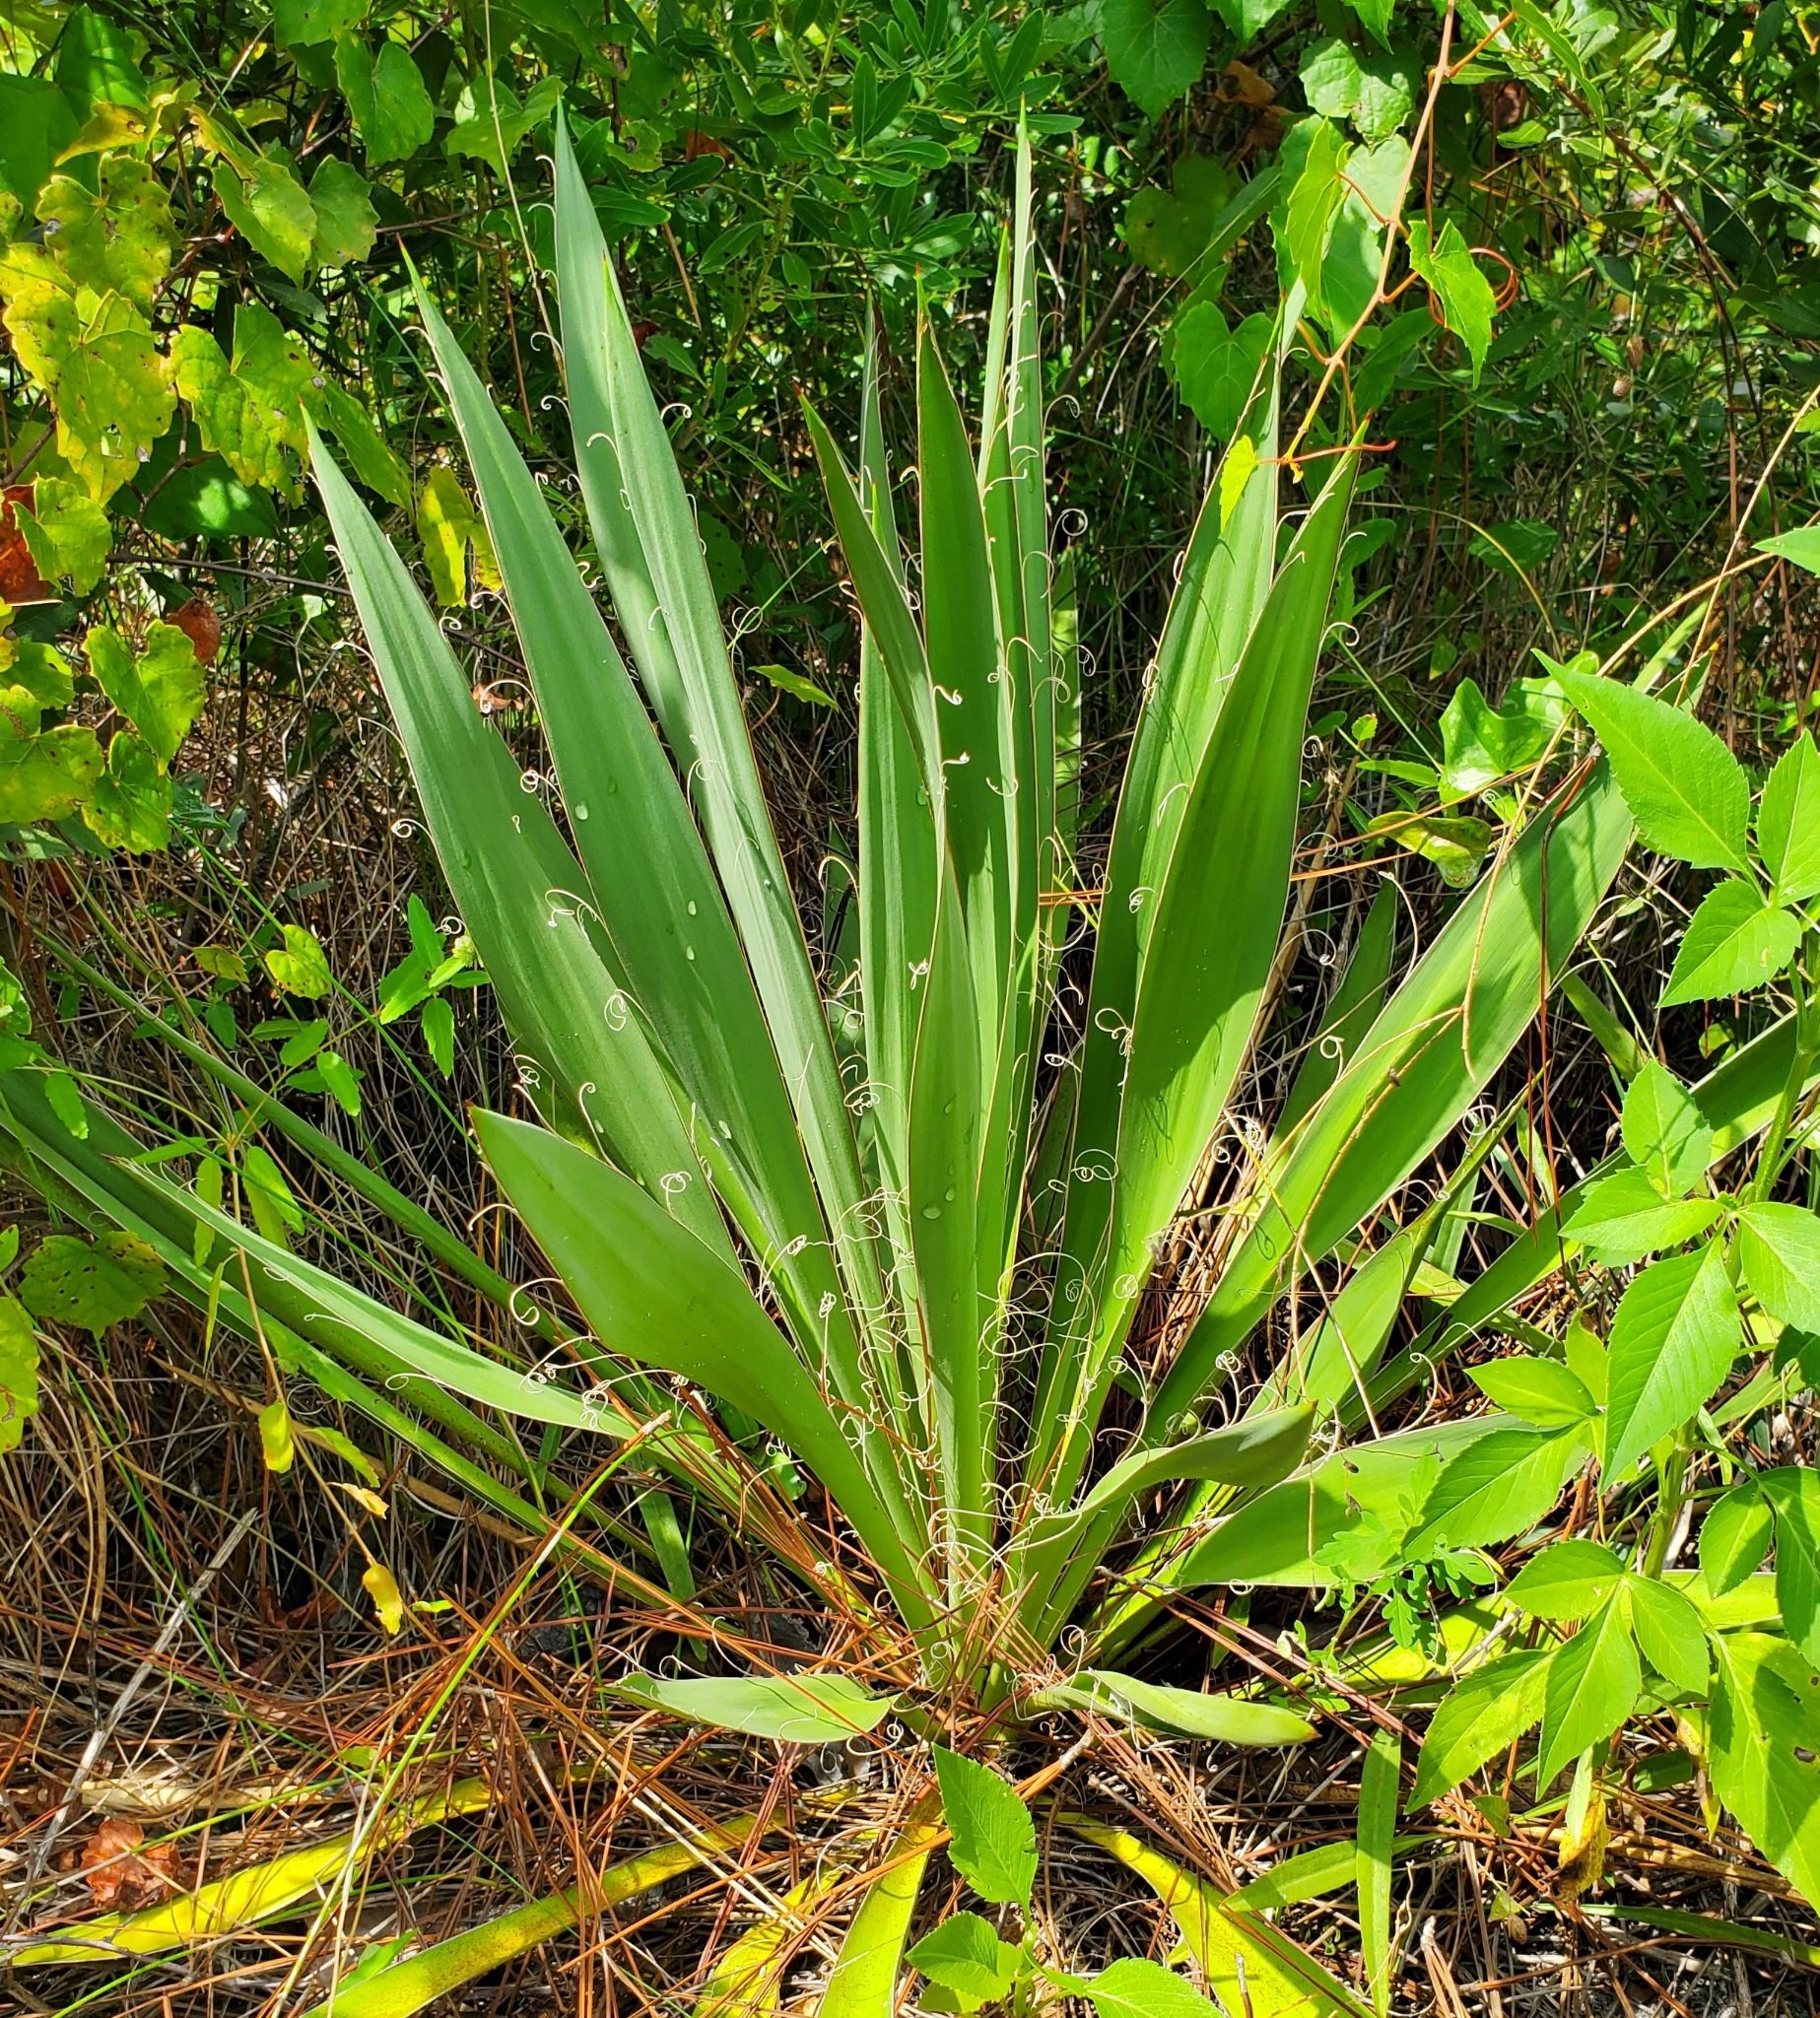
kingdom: Plantae
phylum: Tracheophyta
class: Liliopsida
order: Asparagales
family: Asparagaceae
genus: Yucca
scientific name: Yucca filamentosa
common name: Adam's-needle
